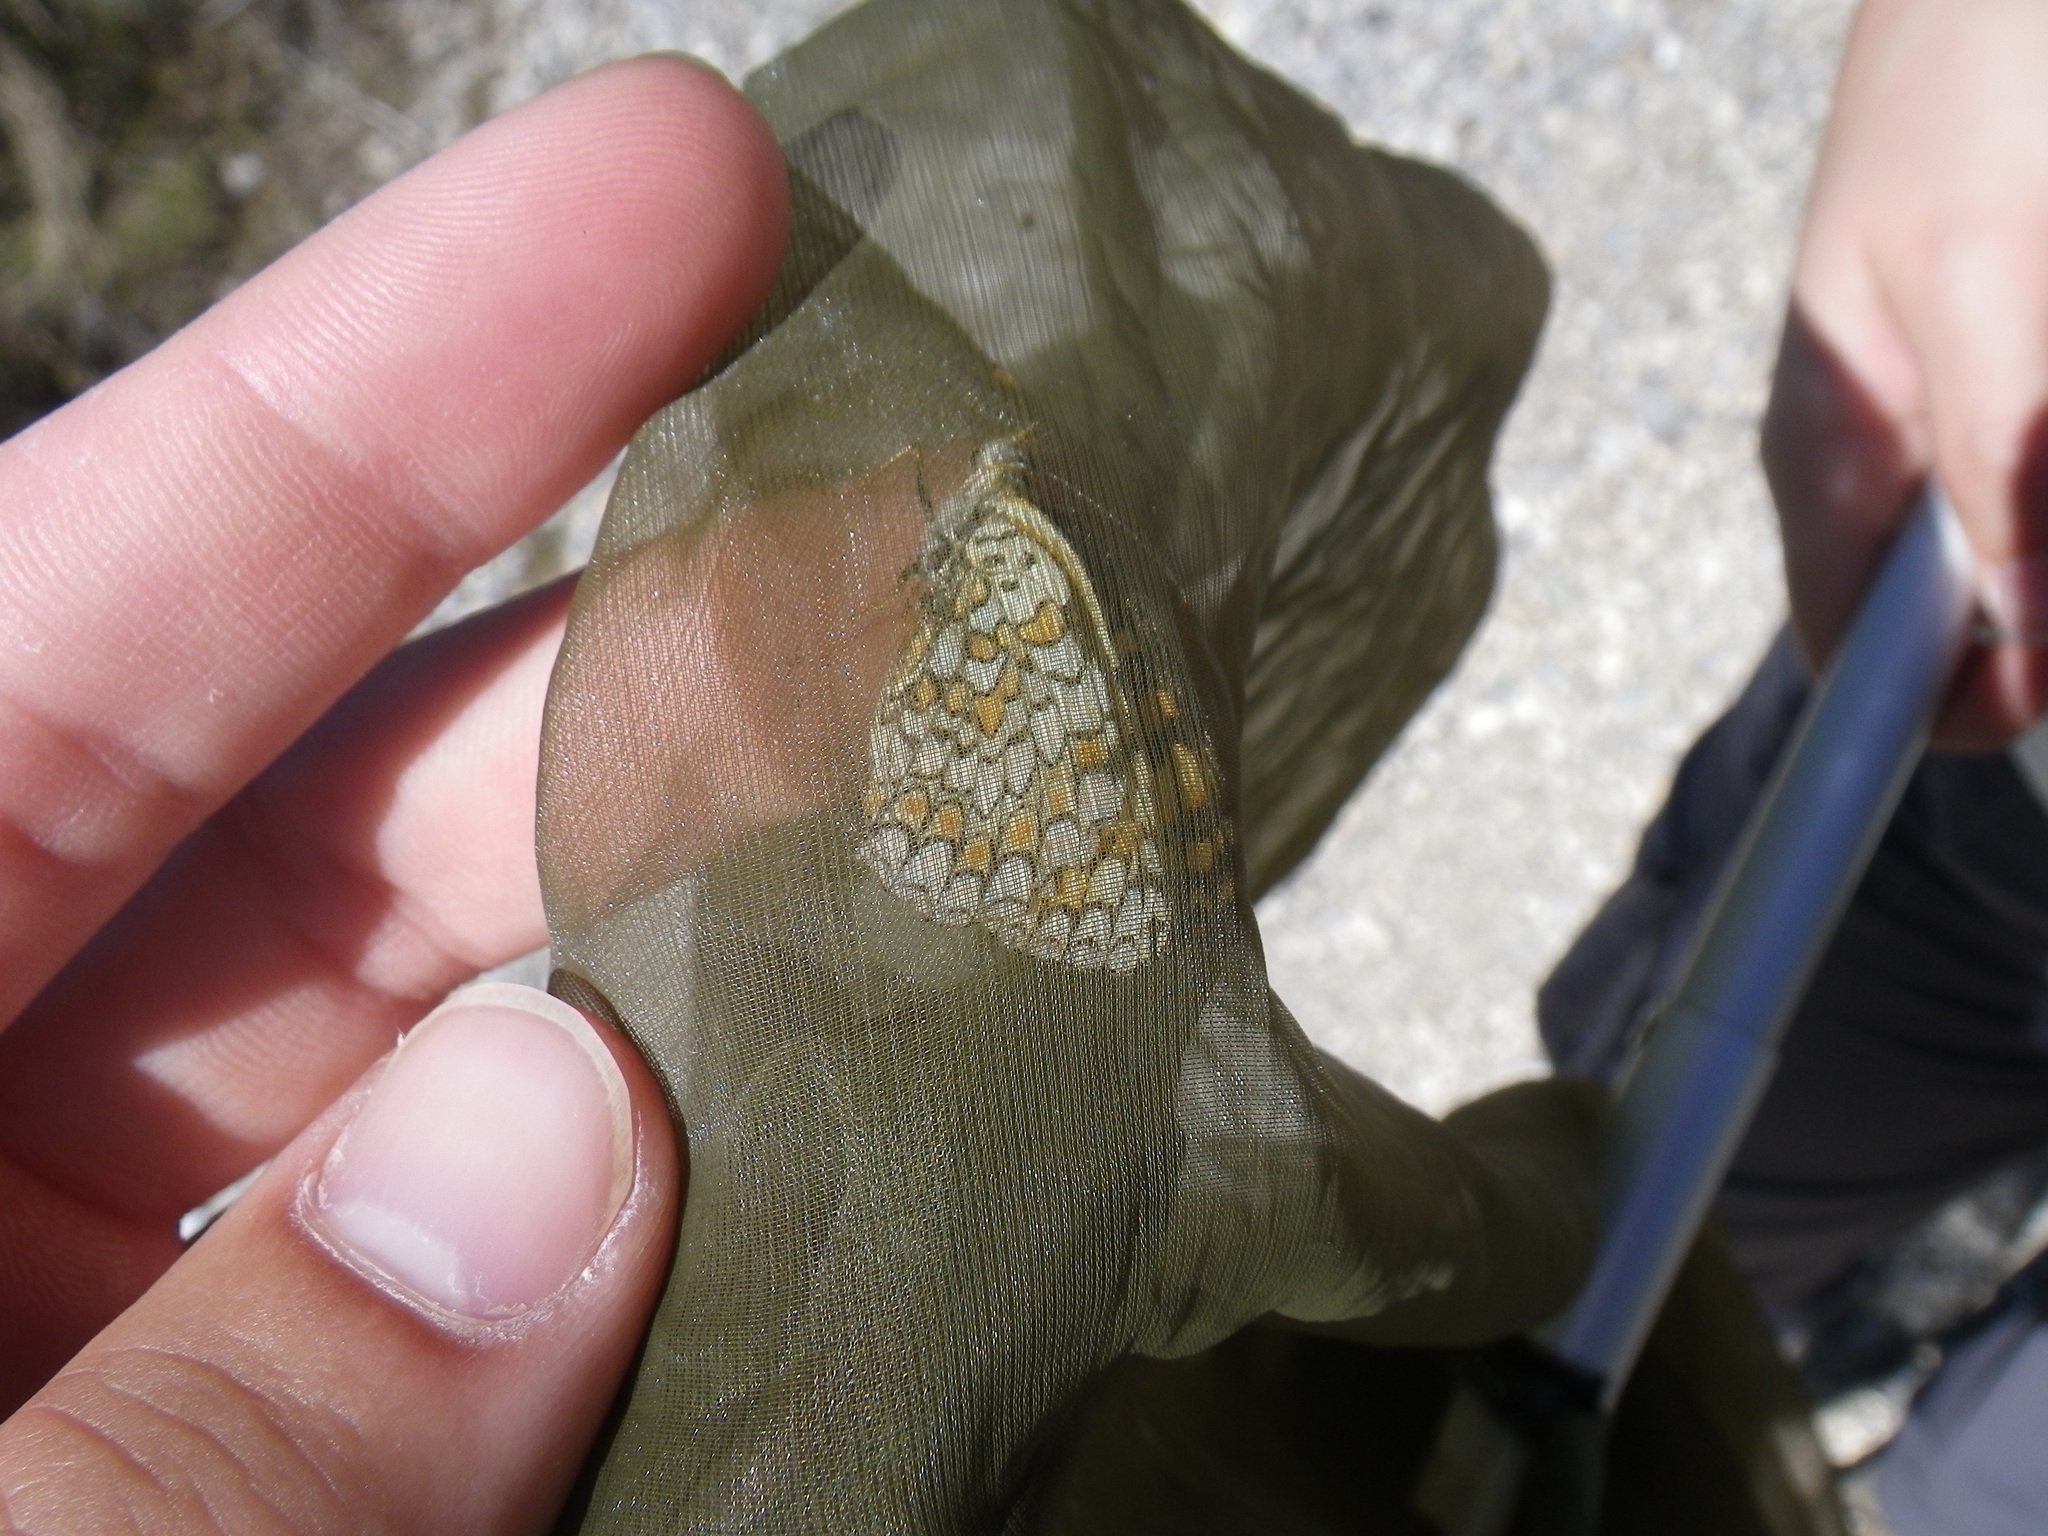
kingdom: Animalia
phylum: Arthropoda
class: Insecta
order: Lepidoptera
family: Nymphalidae
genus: Melitaea
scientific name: Melitaea phoebe
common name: Knapweed fritillary
